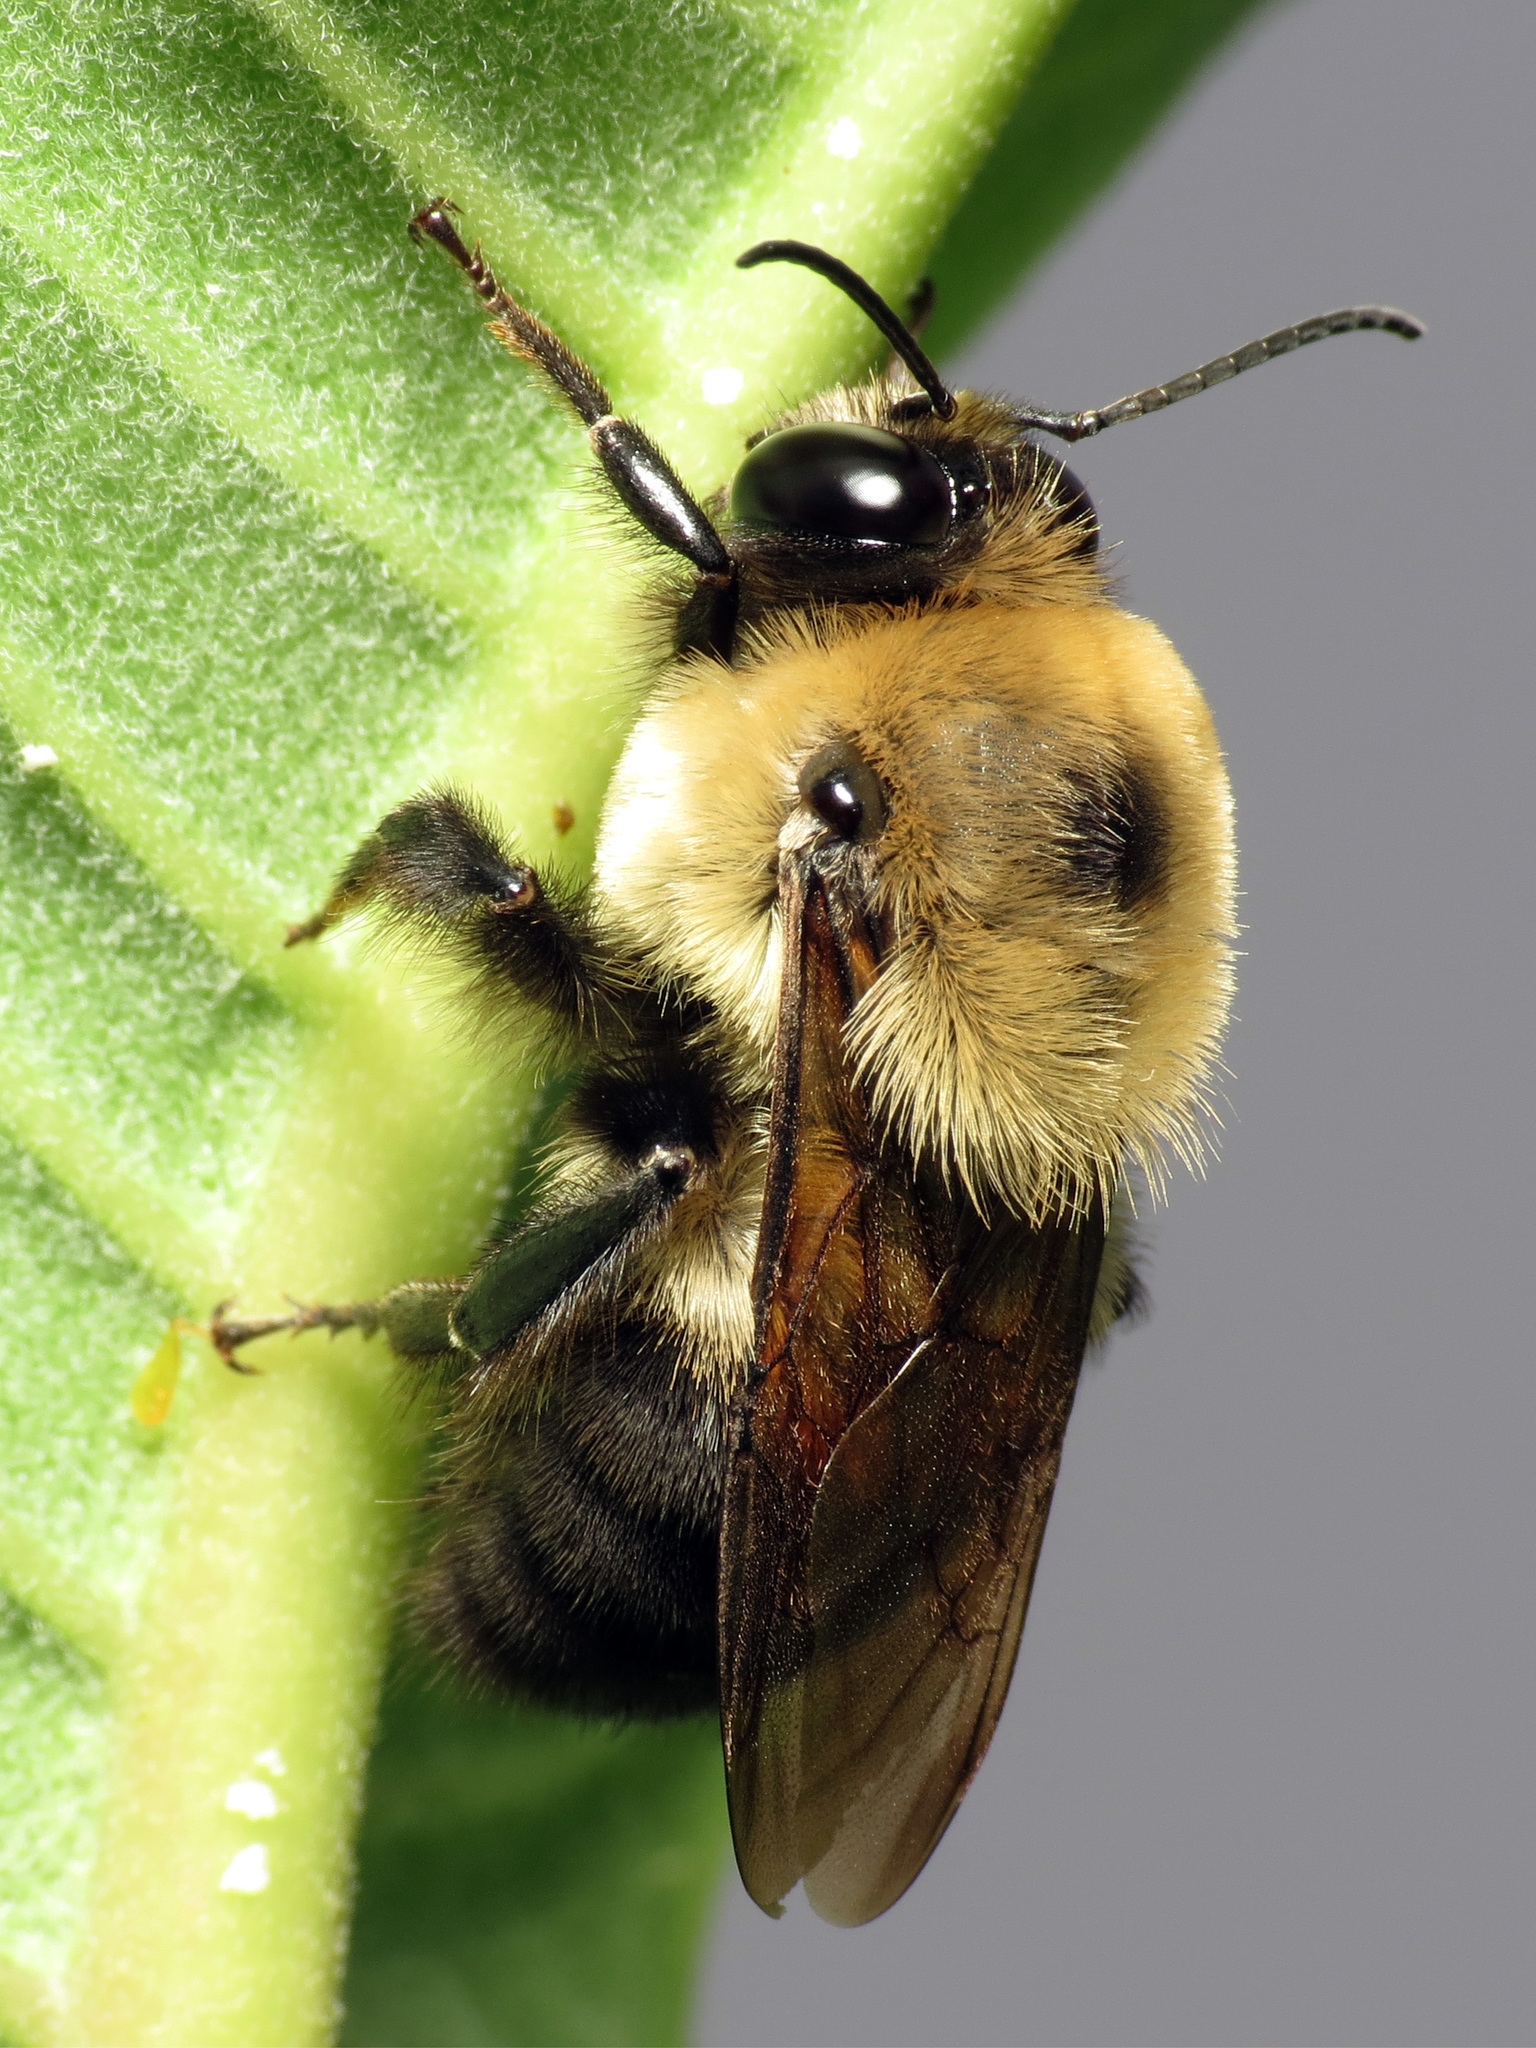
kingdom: Animalia
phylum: Arthropoda
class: Insecta
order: Hymenoptera
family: Apidae
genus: Bombus
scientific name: Bombus griseocollis
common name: Brown-belted bumble bee
